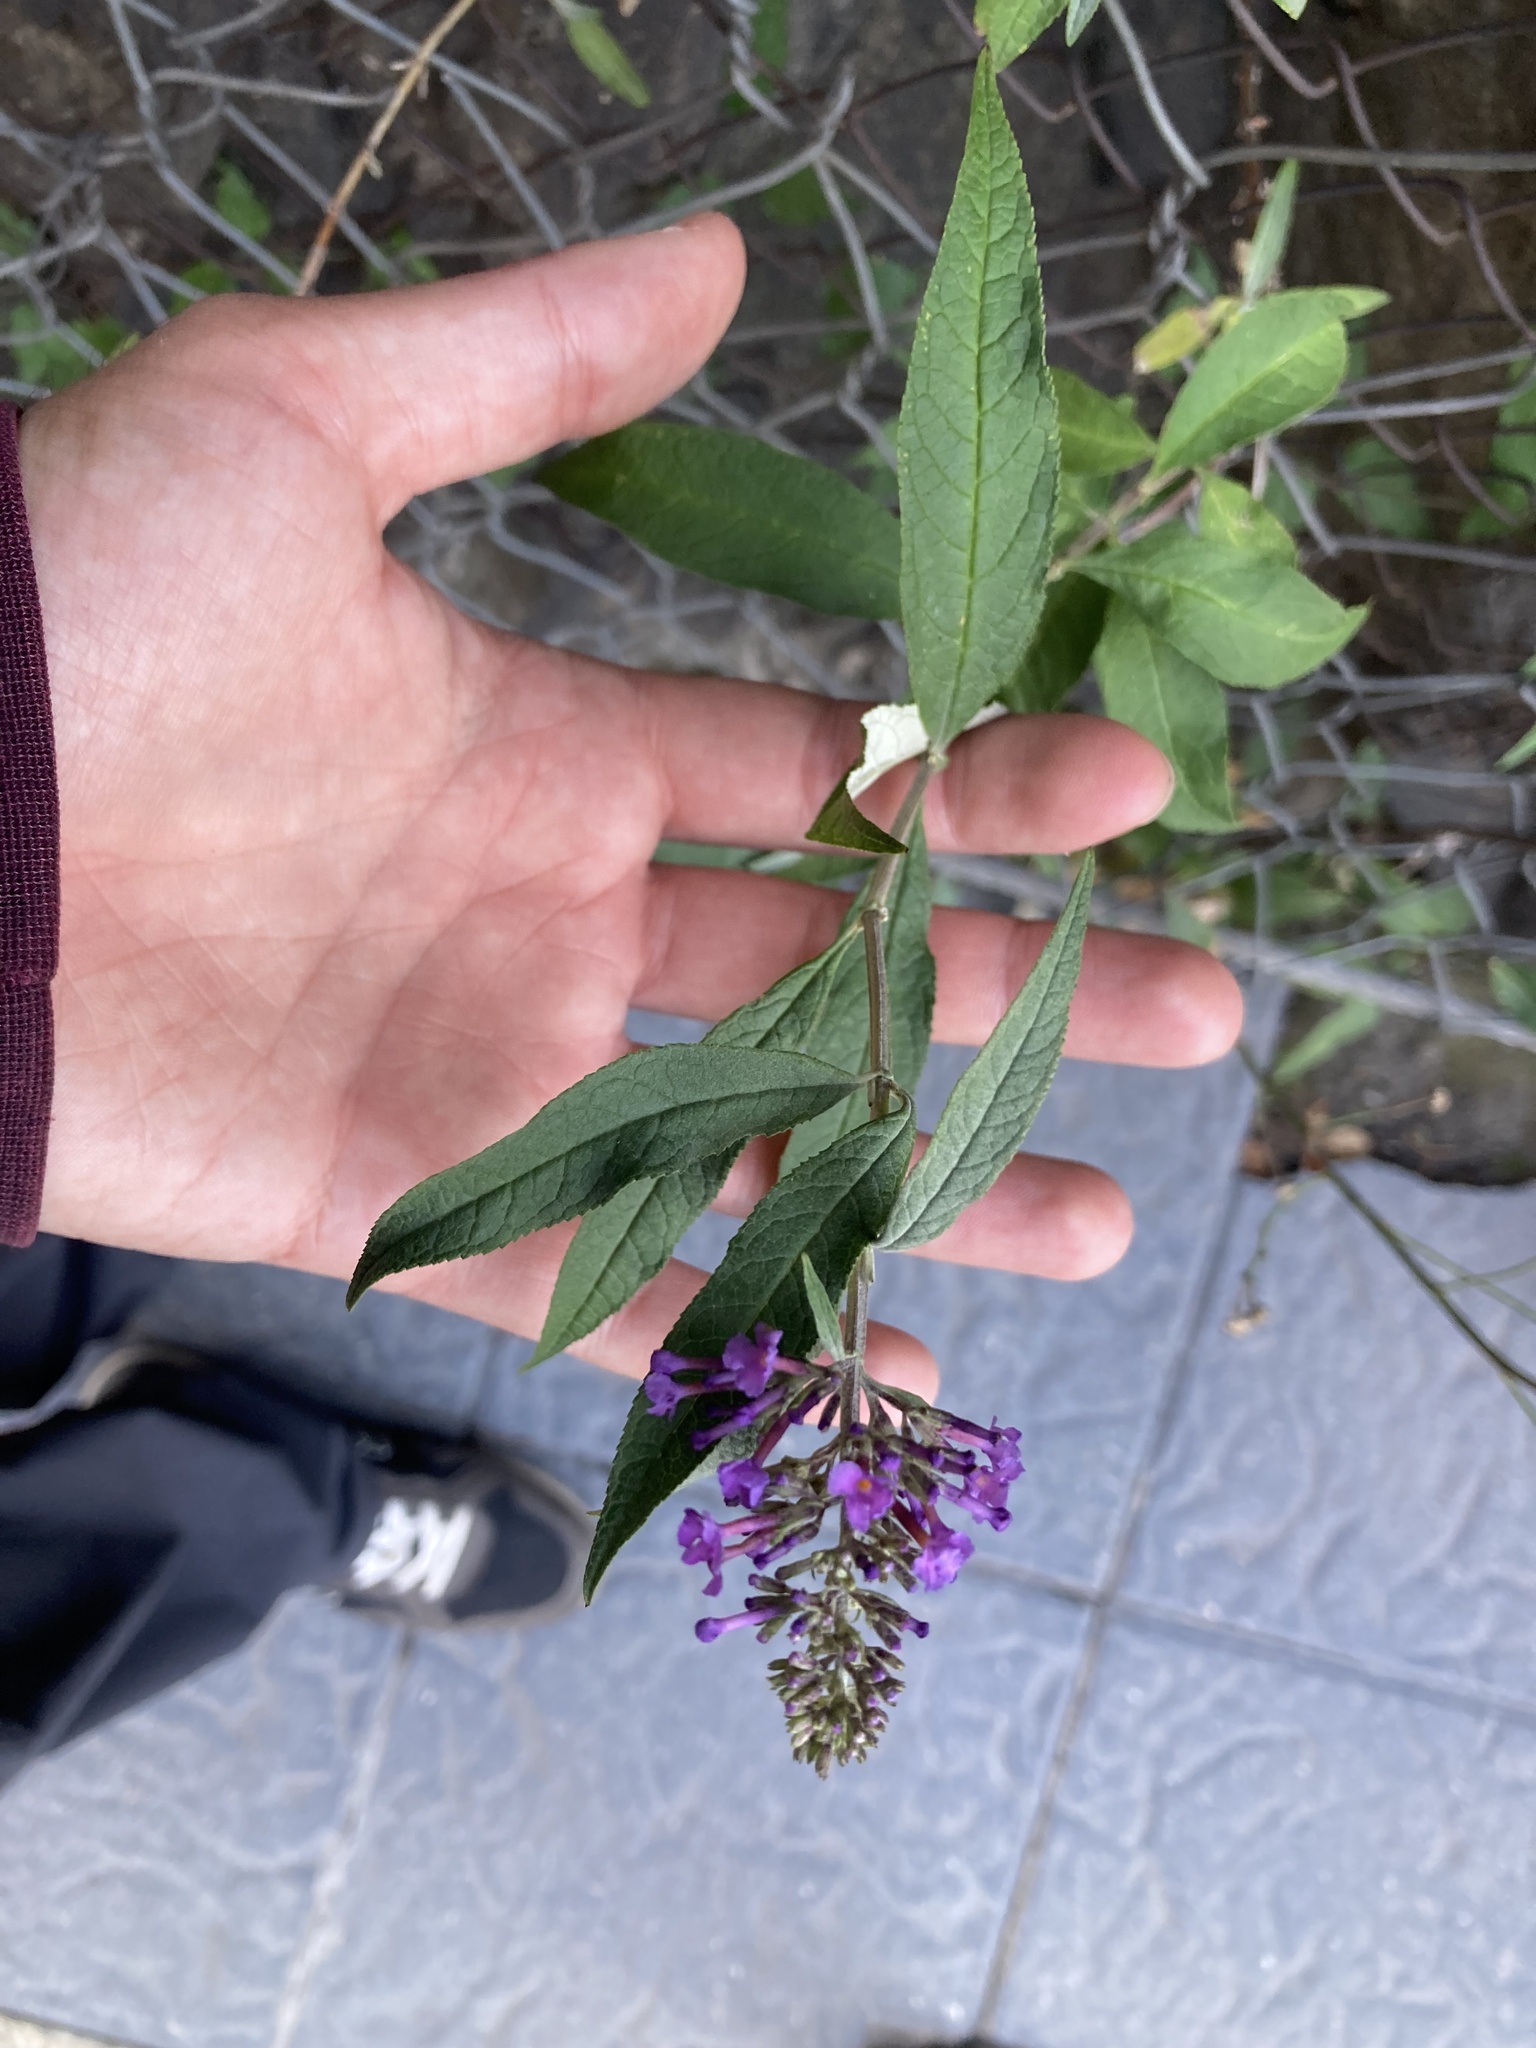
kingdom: Plantae
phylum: Tracheophyta
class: Magnoliopsida
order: Lamiales
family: Scrophulariaceae
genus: Buddleja
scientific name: Buddleja davidii
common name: Butterfly-bush
